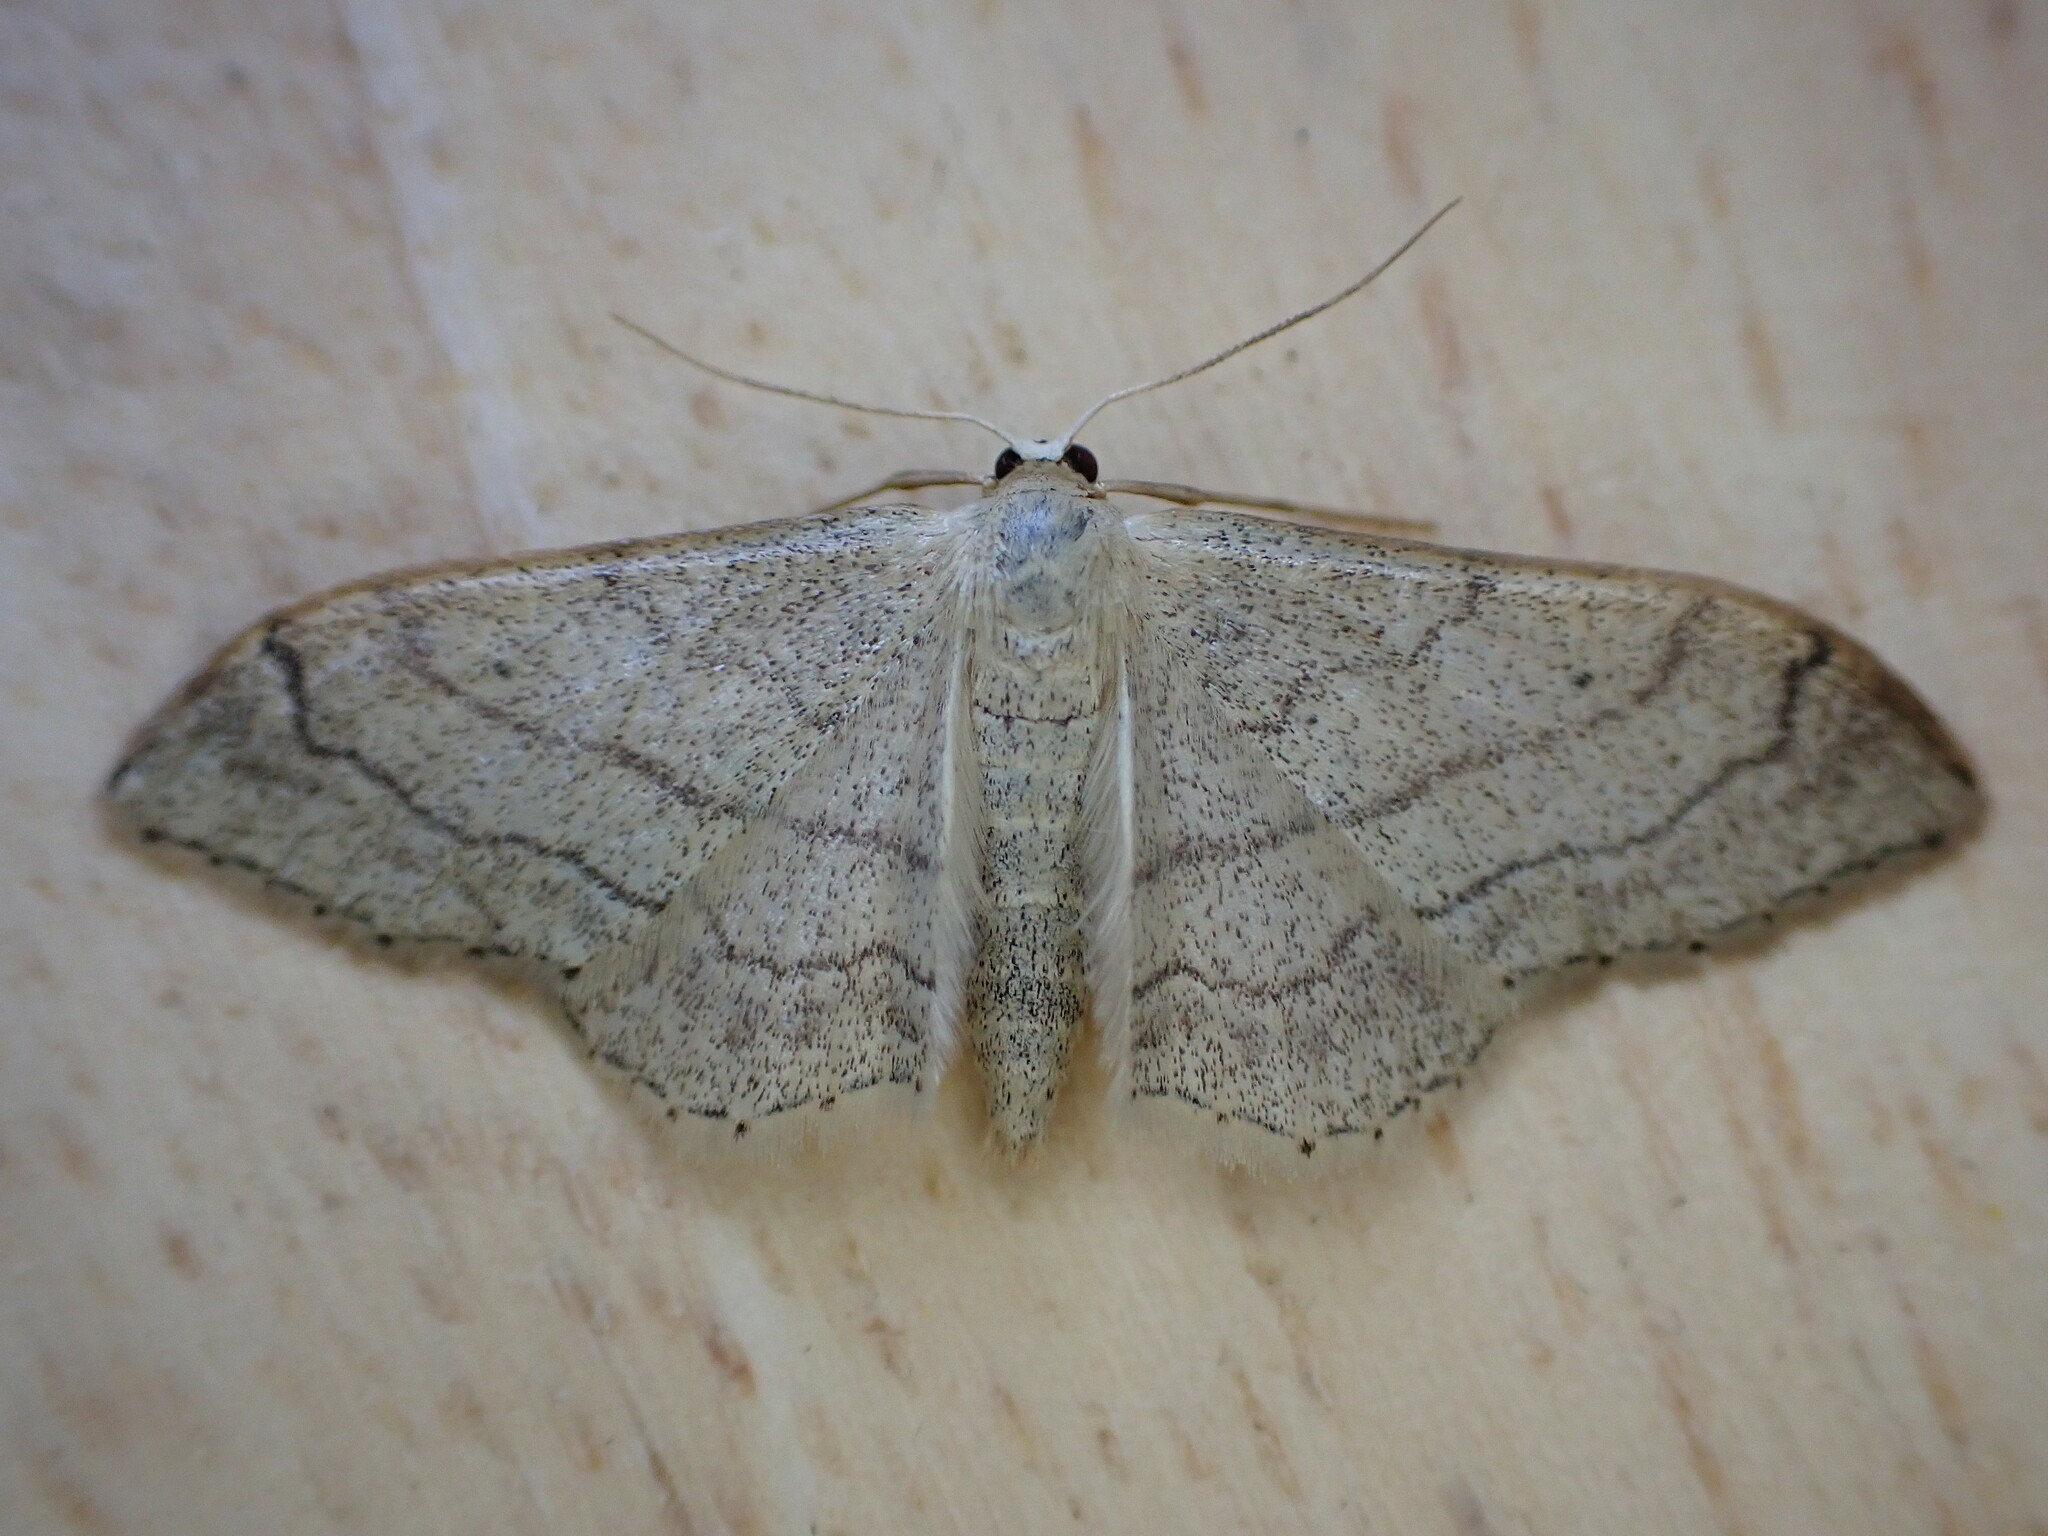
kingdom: Animalia
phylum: Arthropoda
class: Insecta
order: Lepidoptera
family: Geometridae
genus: Idaea
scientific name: Idaea aversata
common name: Riband wave
